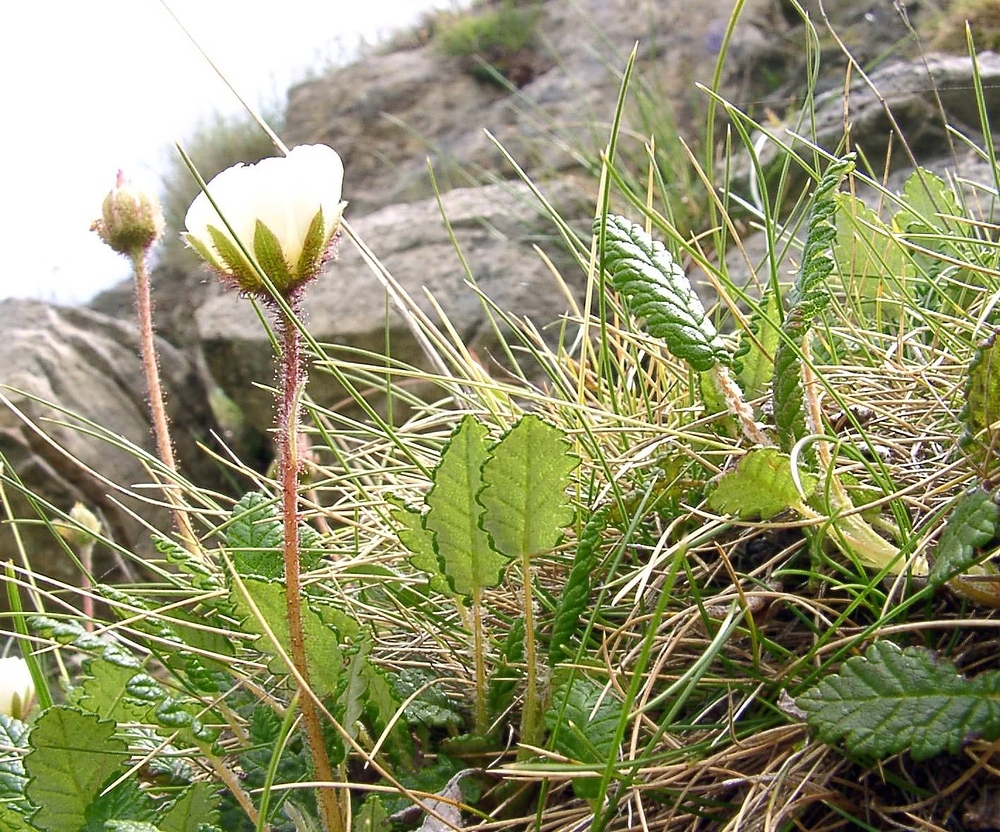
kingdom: Plantae
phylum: Tracheophyta
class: Magnoliopsida
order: Rosales
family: Rosaceae
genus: Dryas
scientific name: Dryas octopetala
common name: Eight-petal mountain-avens
